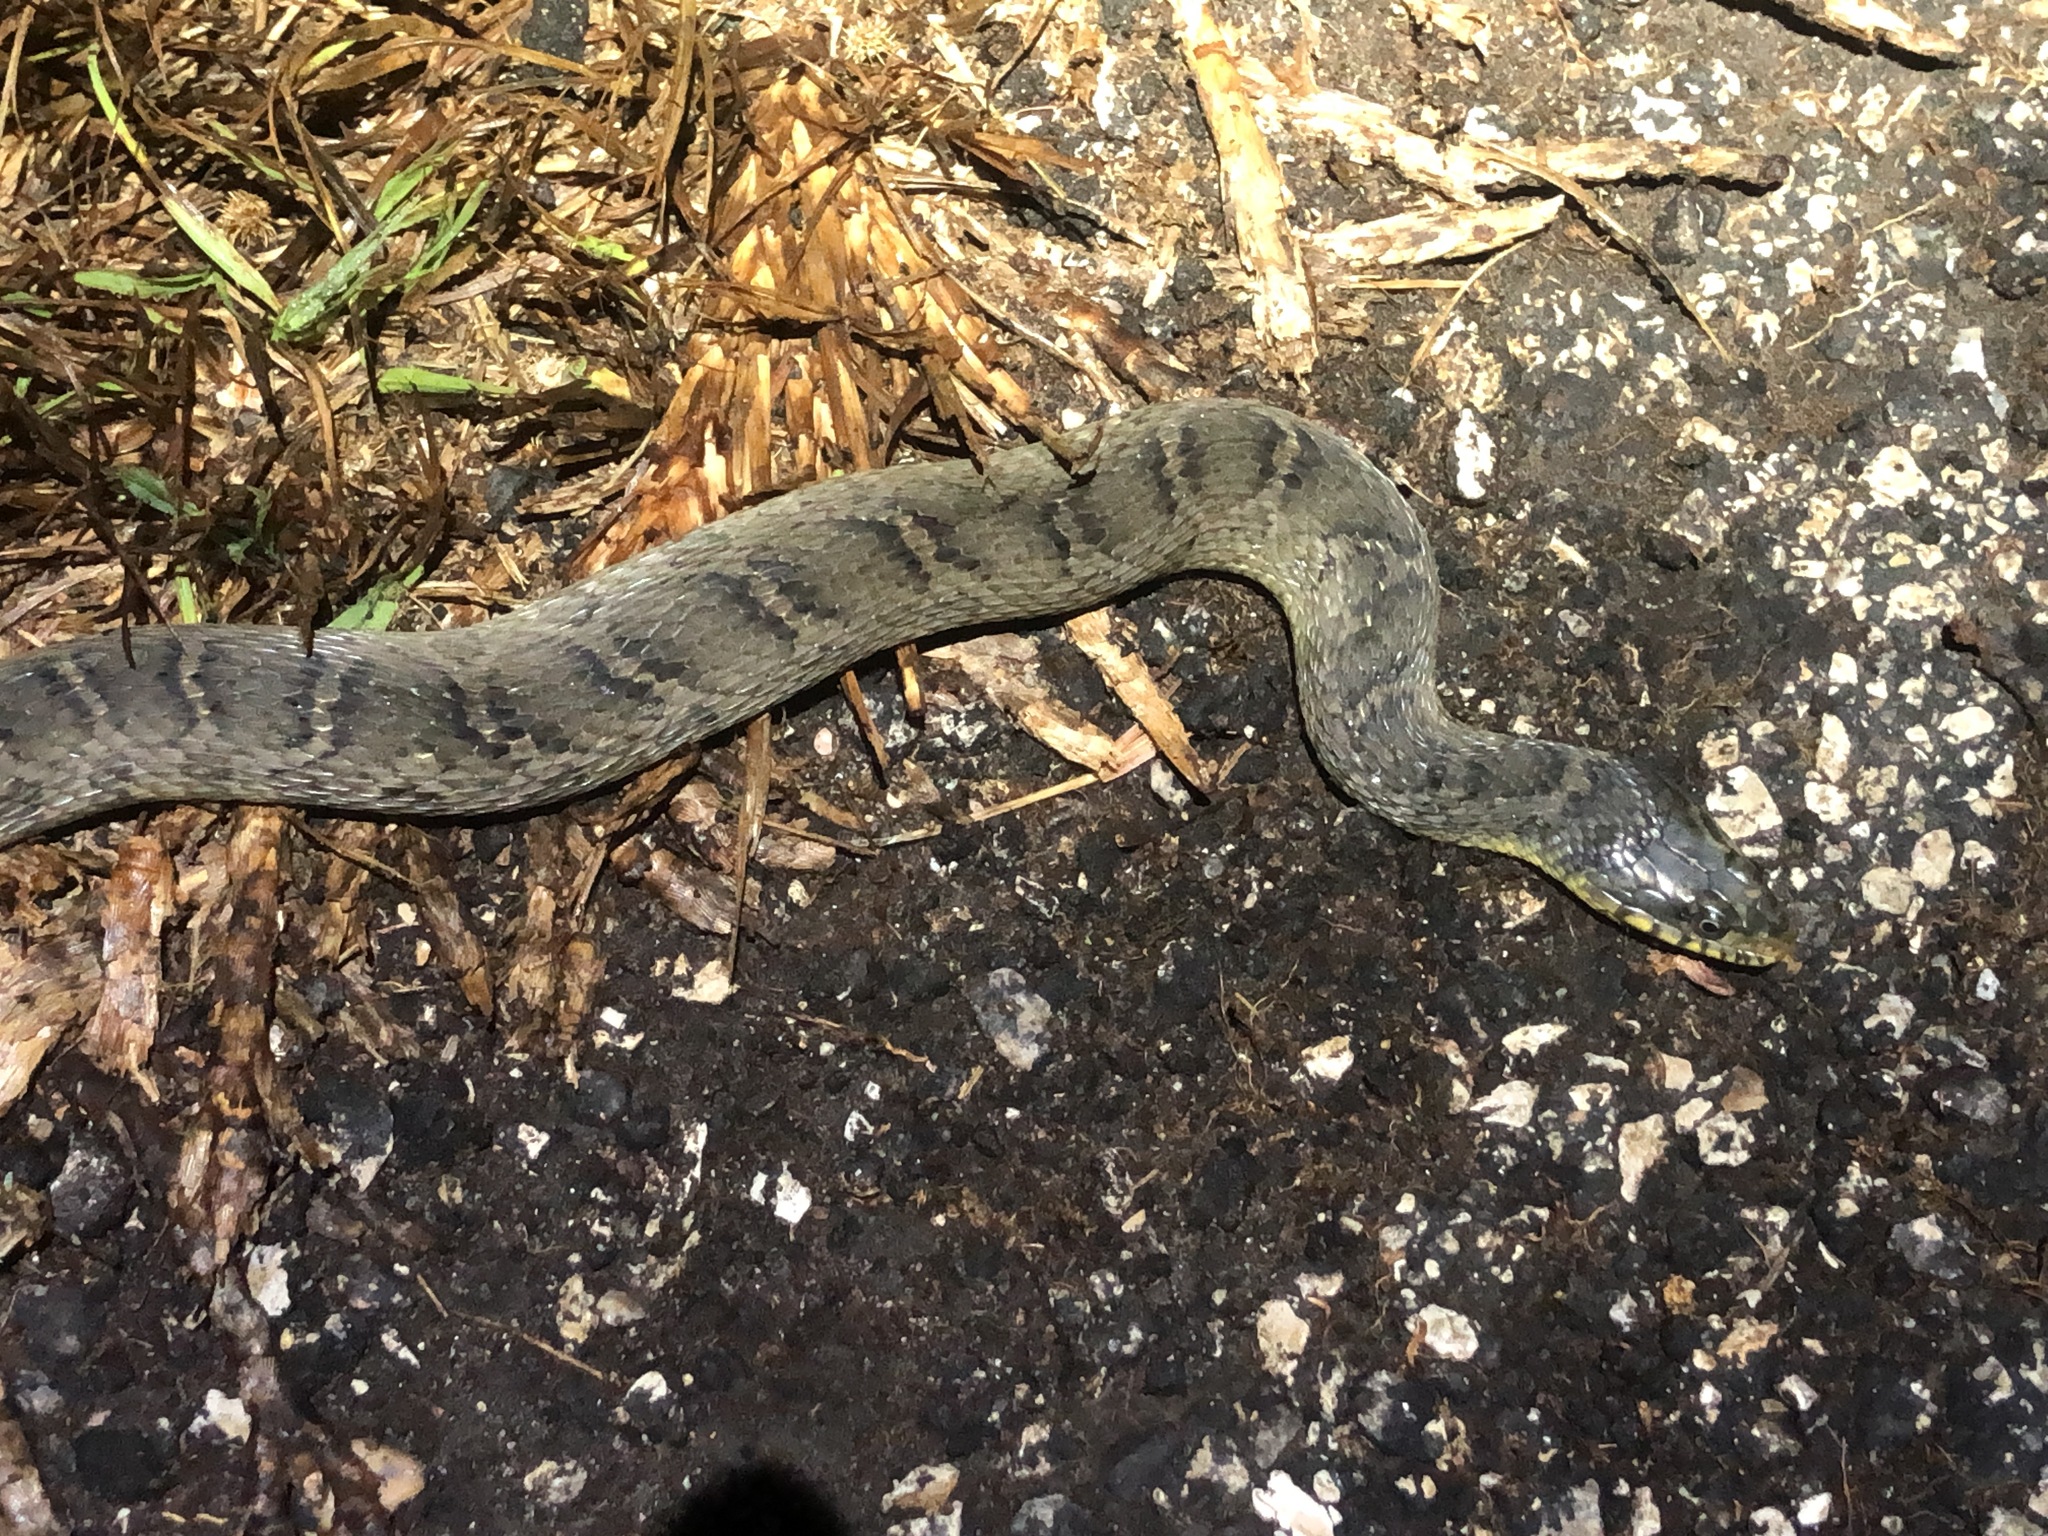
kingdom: Animalia
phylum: Chordata
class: Squamata
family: Colubridae
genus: Nerodia
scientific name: Nerodia erythrogaster
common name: Plainbelly water snake
